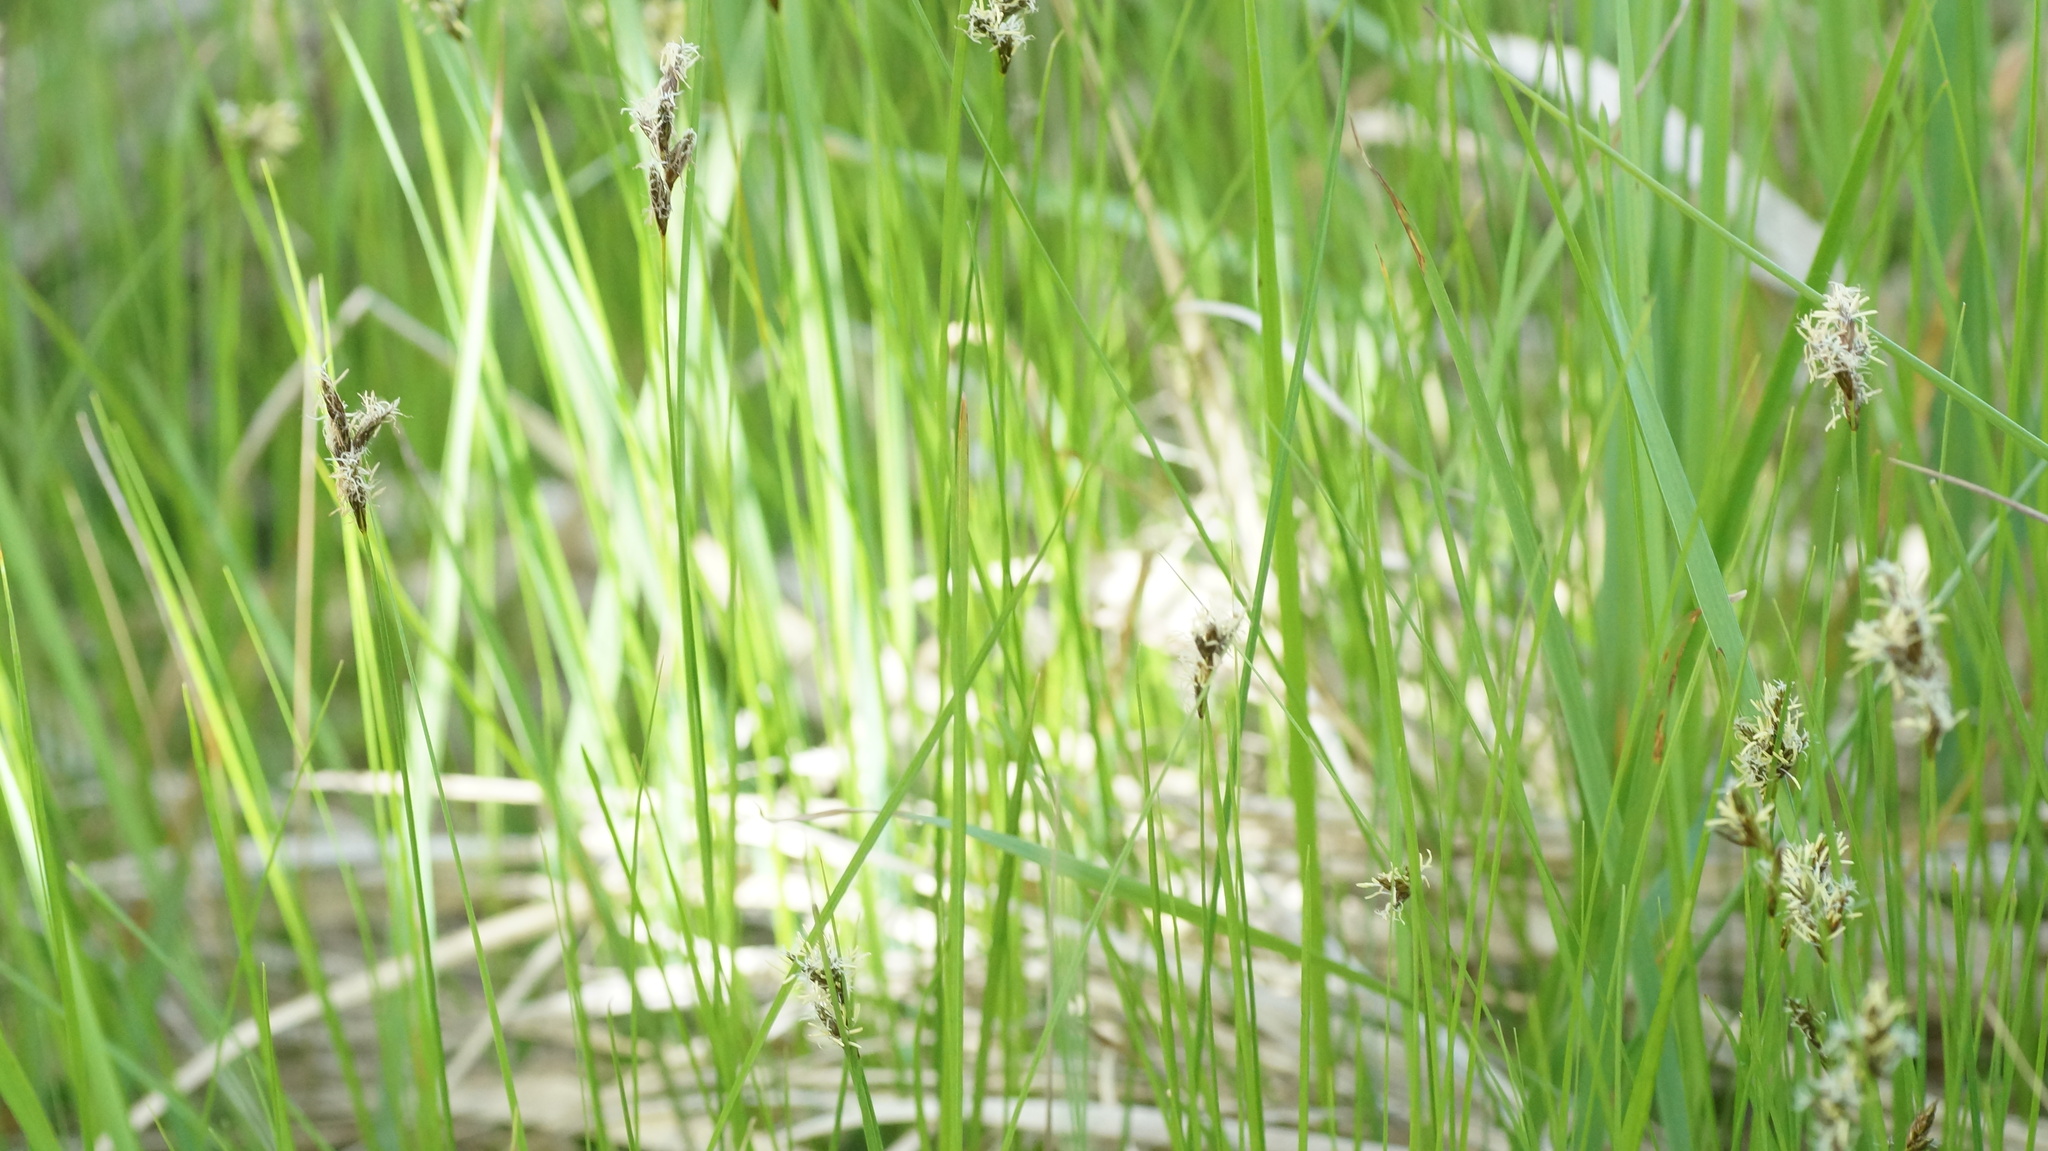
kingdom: Plantae
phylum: Tracheophyta
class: Liliopsida
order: Poales
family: Cyperaceae
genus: Carex
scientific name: Carex praecox
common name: Early sedge
